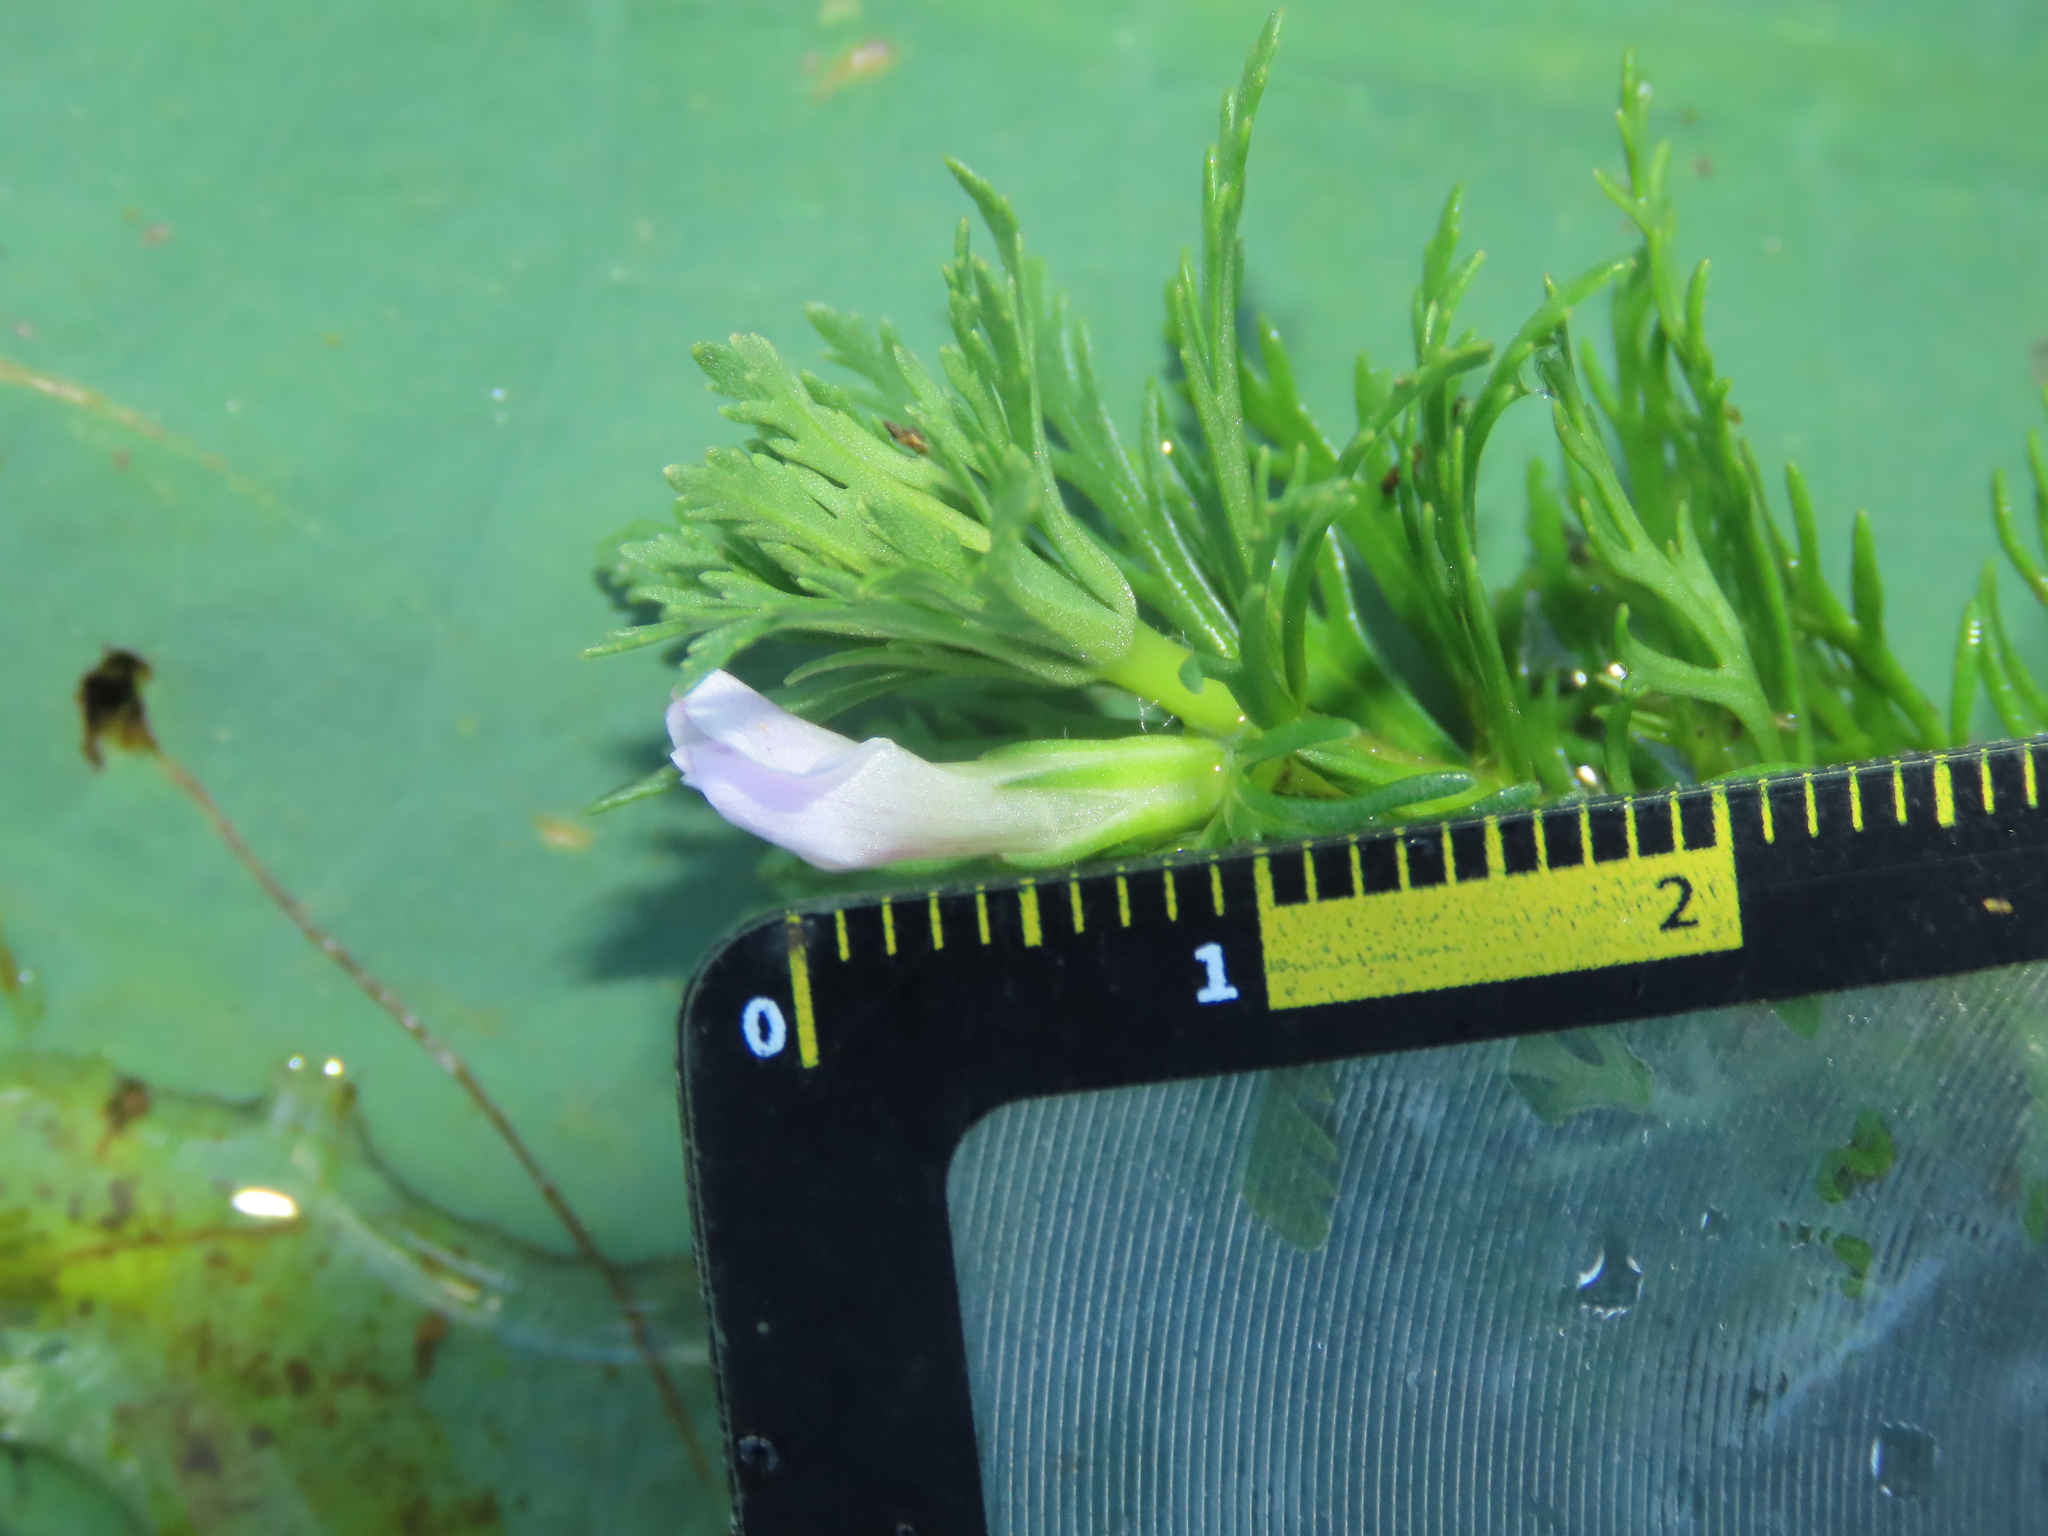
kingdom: Plantae
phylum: Tracheophyta
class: Magnoliopsida
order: Lamiales
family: Plantaginaceae
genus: Limnophila
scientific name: Limnophila sessiliflora
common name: Asian marshweed
